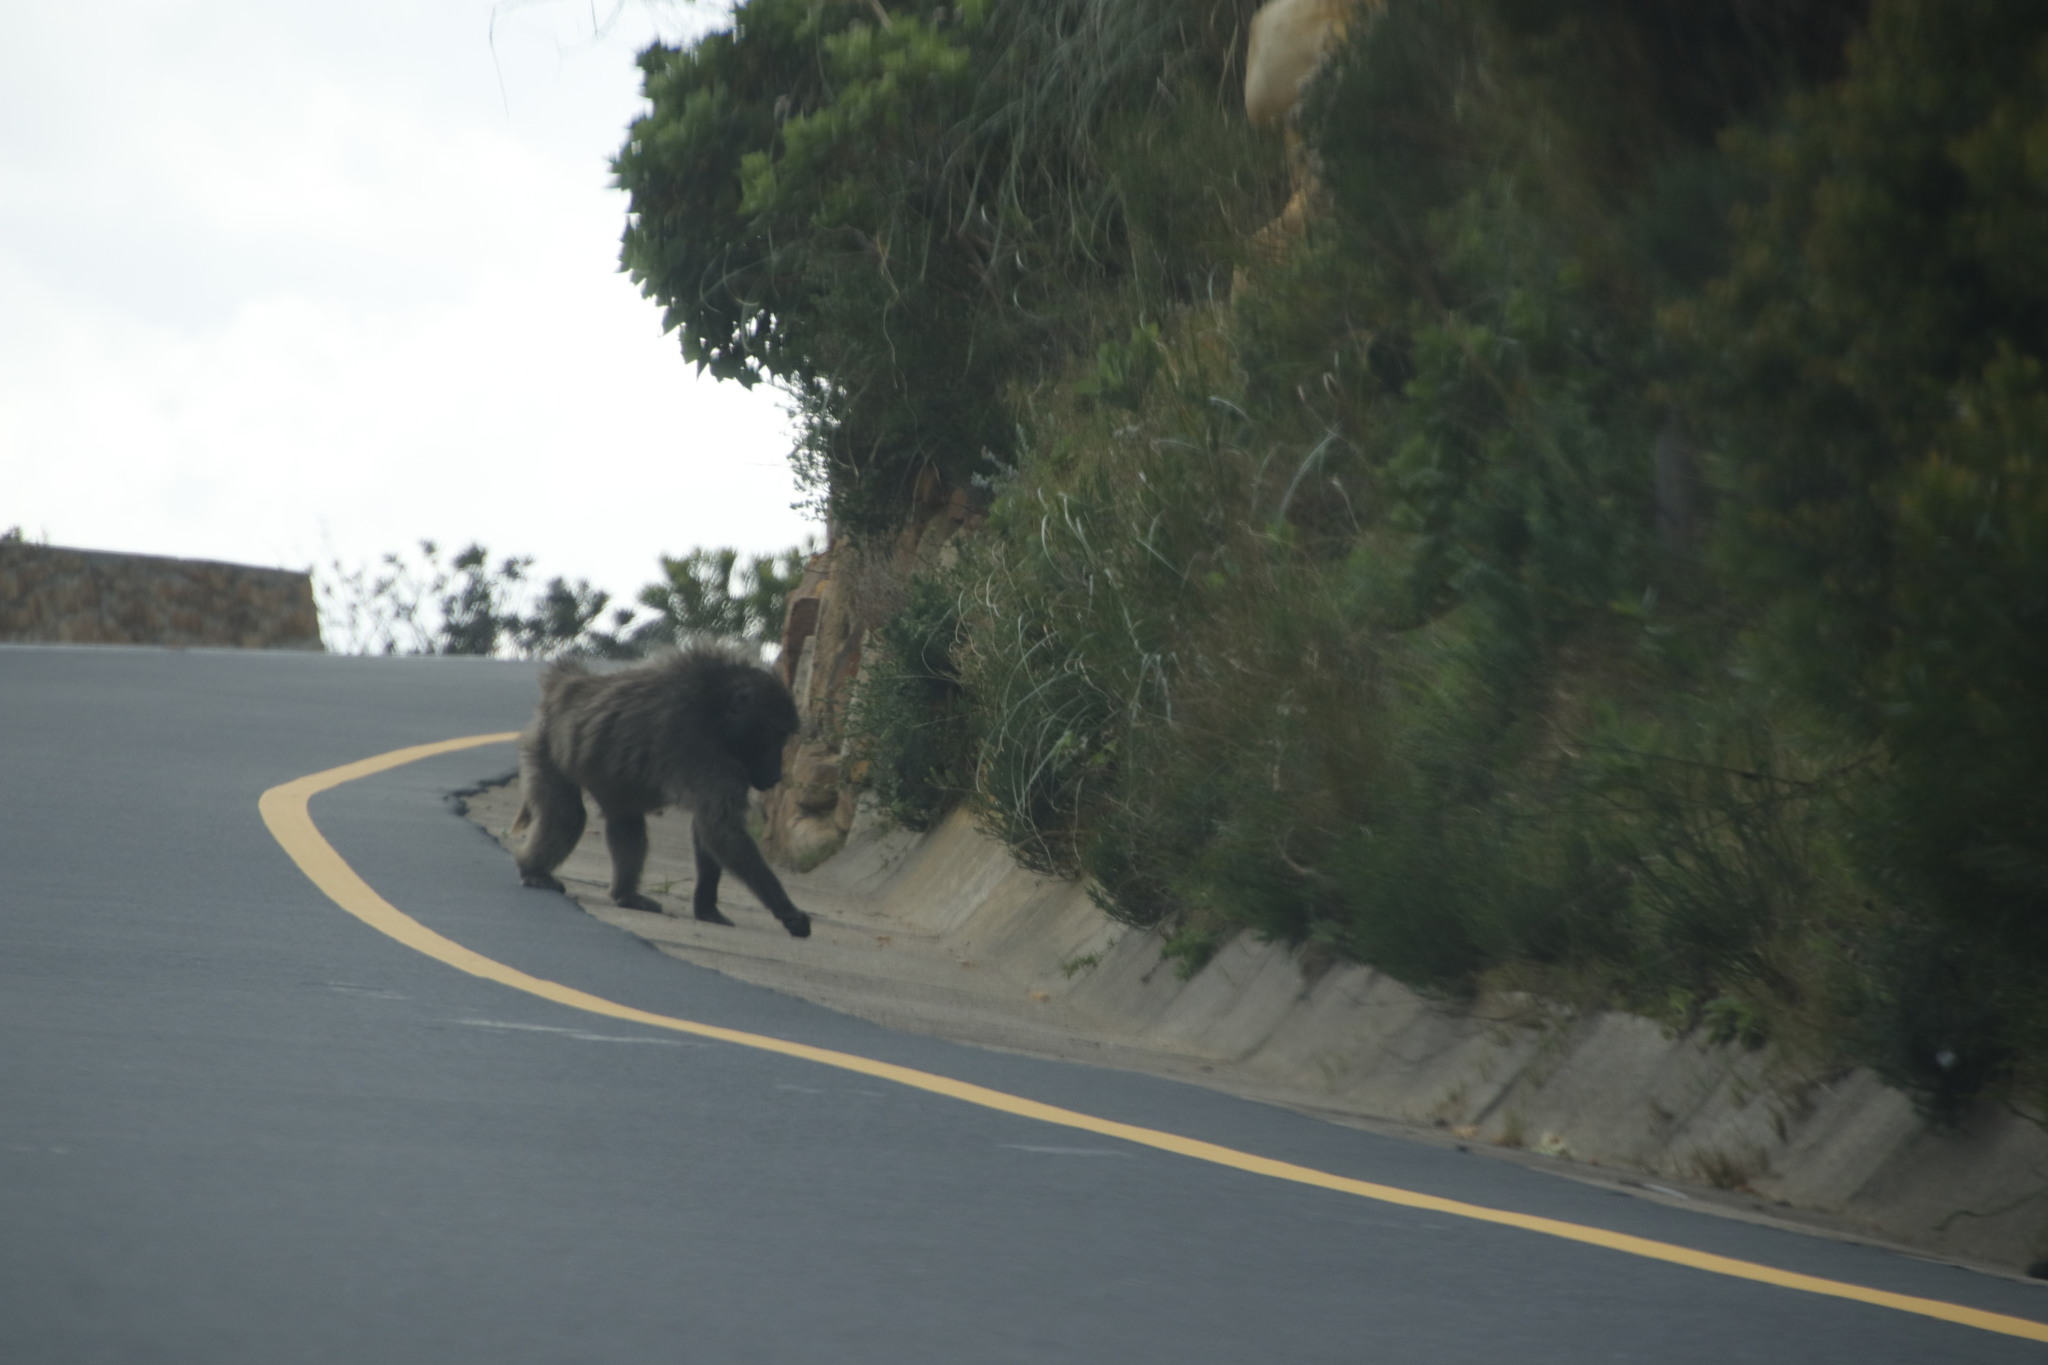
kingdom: Animalia
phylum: Chordata
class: Mammalia
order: Primates
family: Cercopithecidae
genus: Papio
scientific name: Papio ursinus
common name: Chacma baboon
